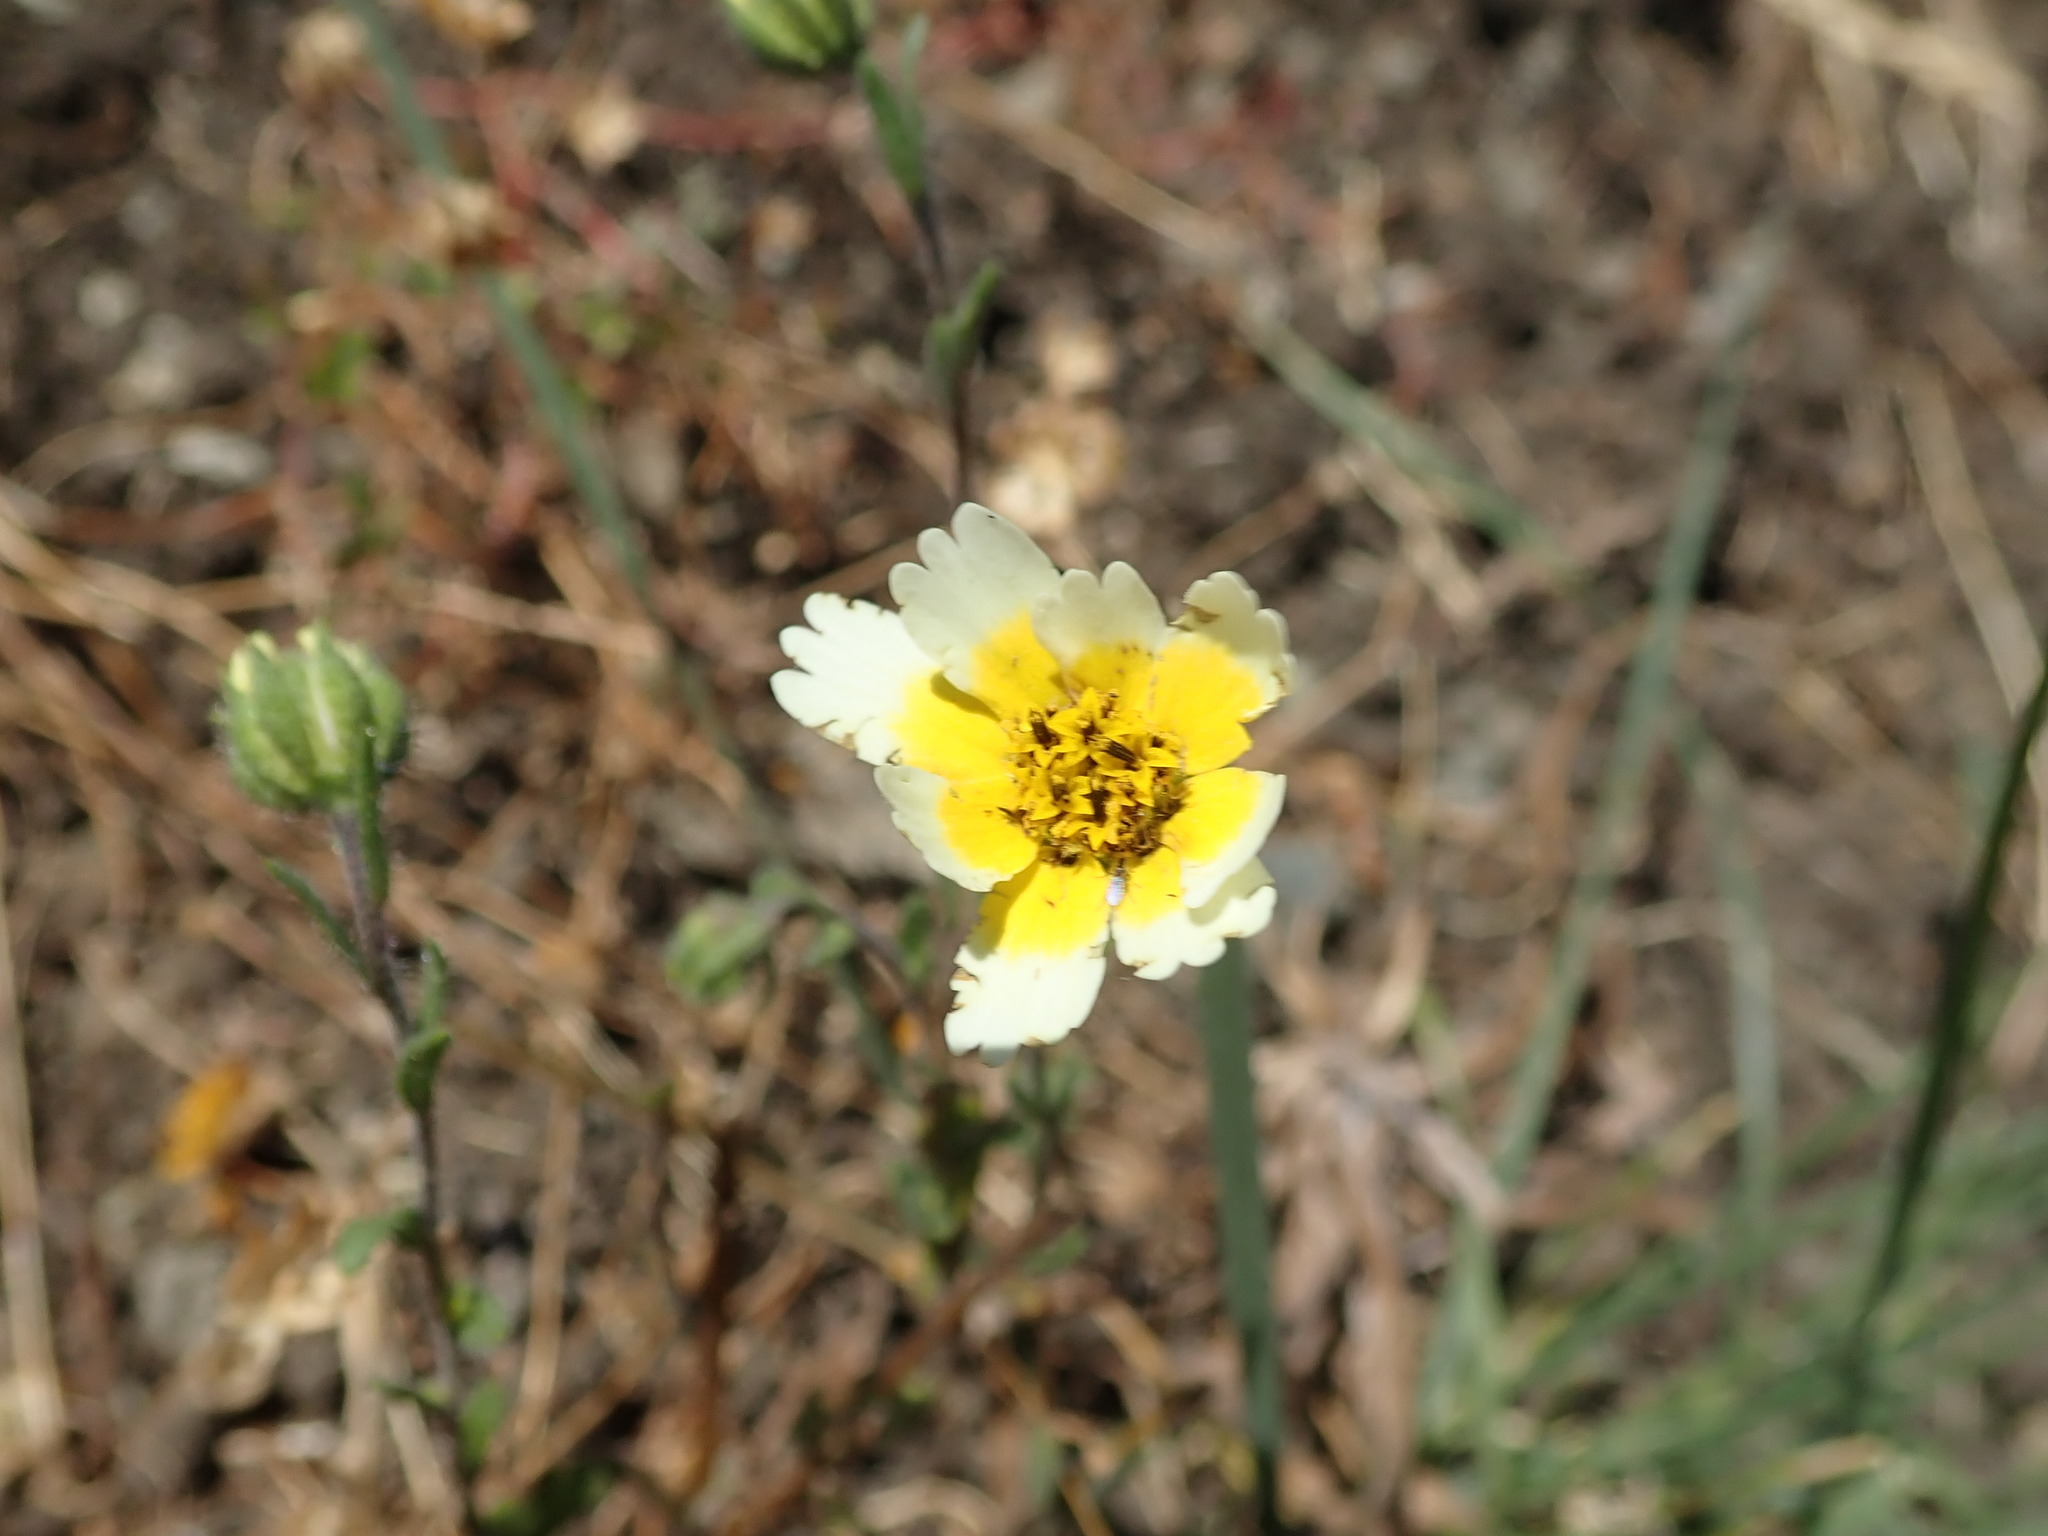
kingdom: Plantae
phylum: Tracheophyta
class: Magnoliopsida
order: Asterales
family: Asteraceae
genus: Layia
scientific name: Layia gaillardioides
